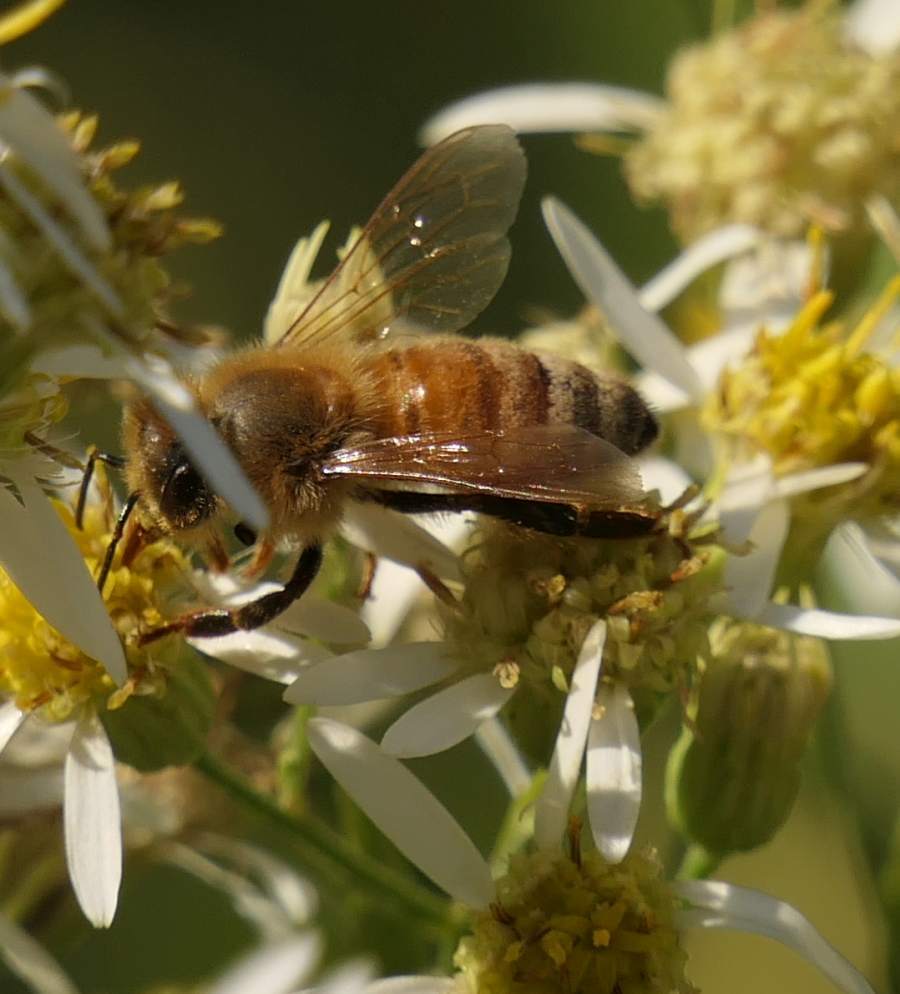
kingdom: Animalia
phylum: Arthropoda
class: Insecta
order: Hymenoptera
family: Apidae
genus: Apis
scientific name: Apis mellifera
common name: Honey bee
